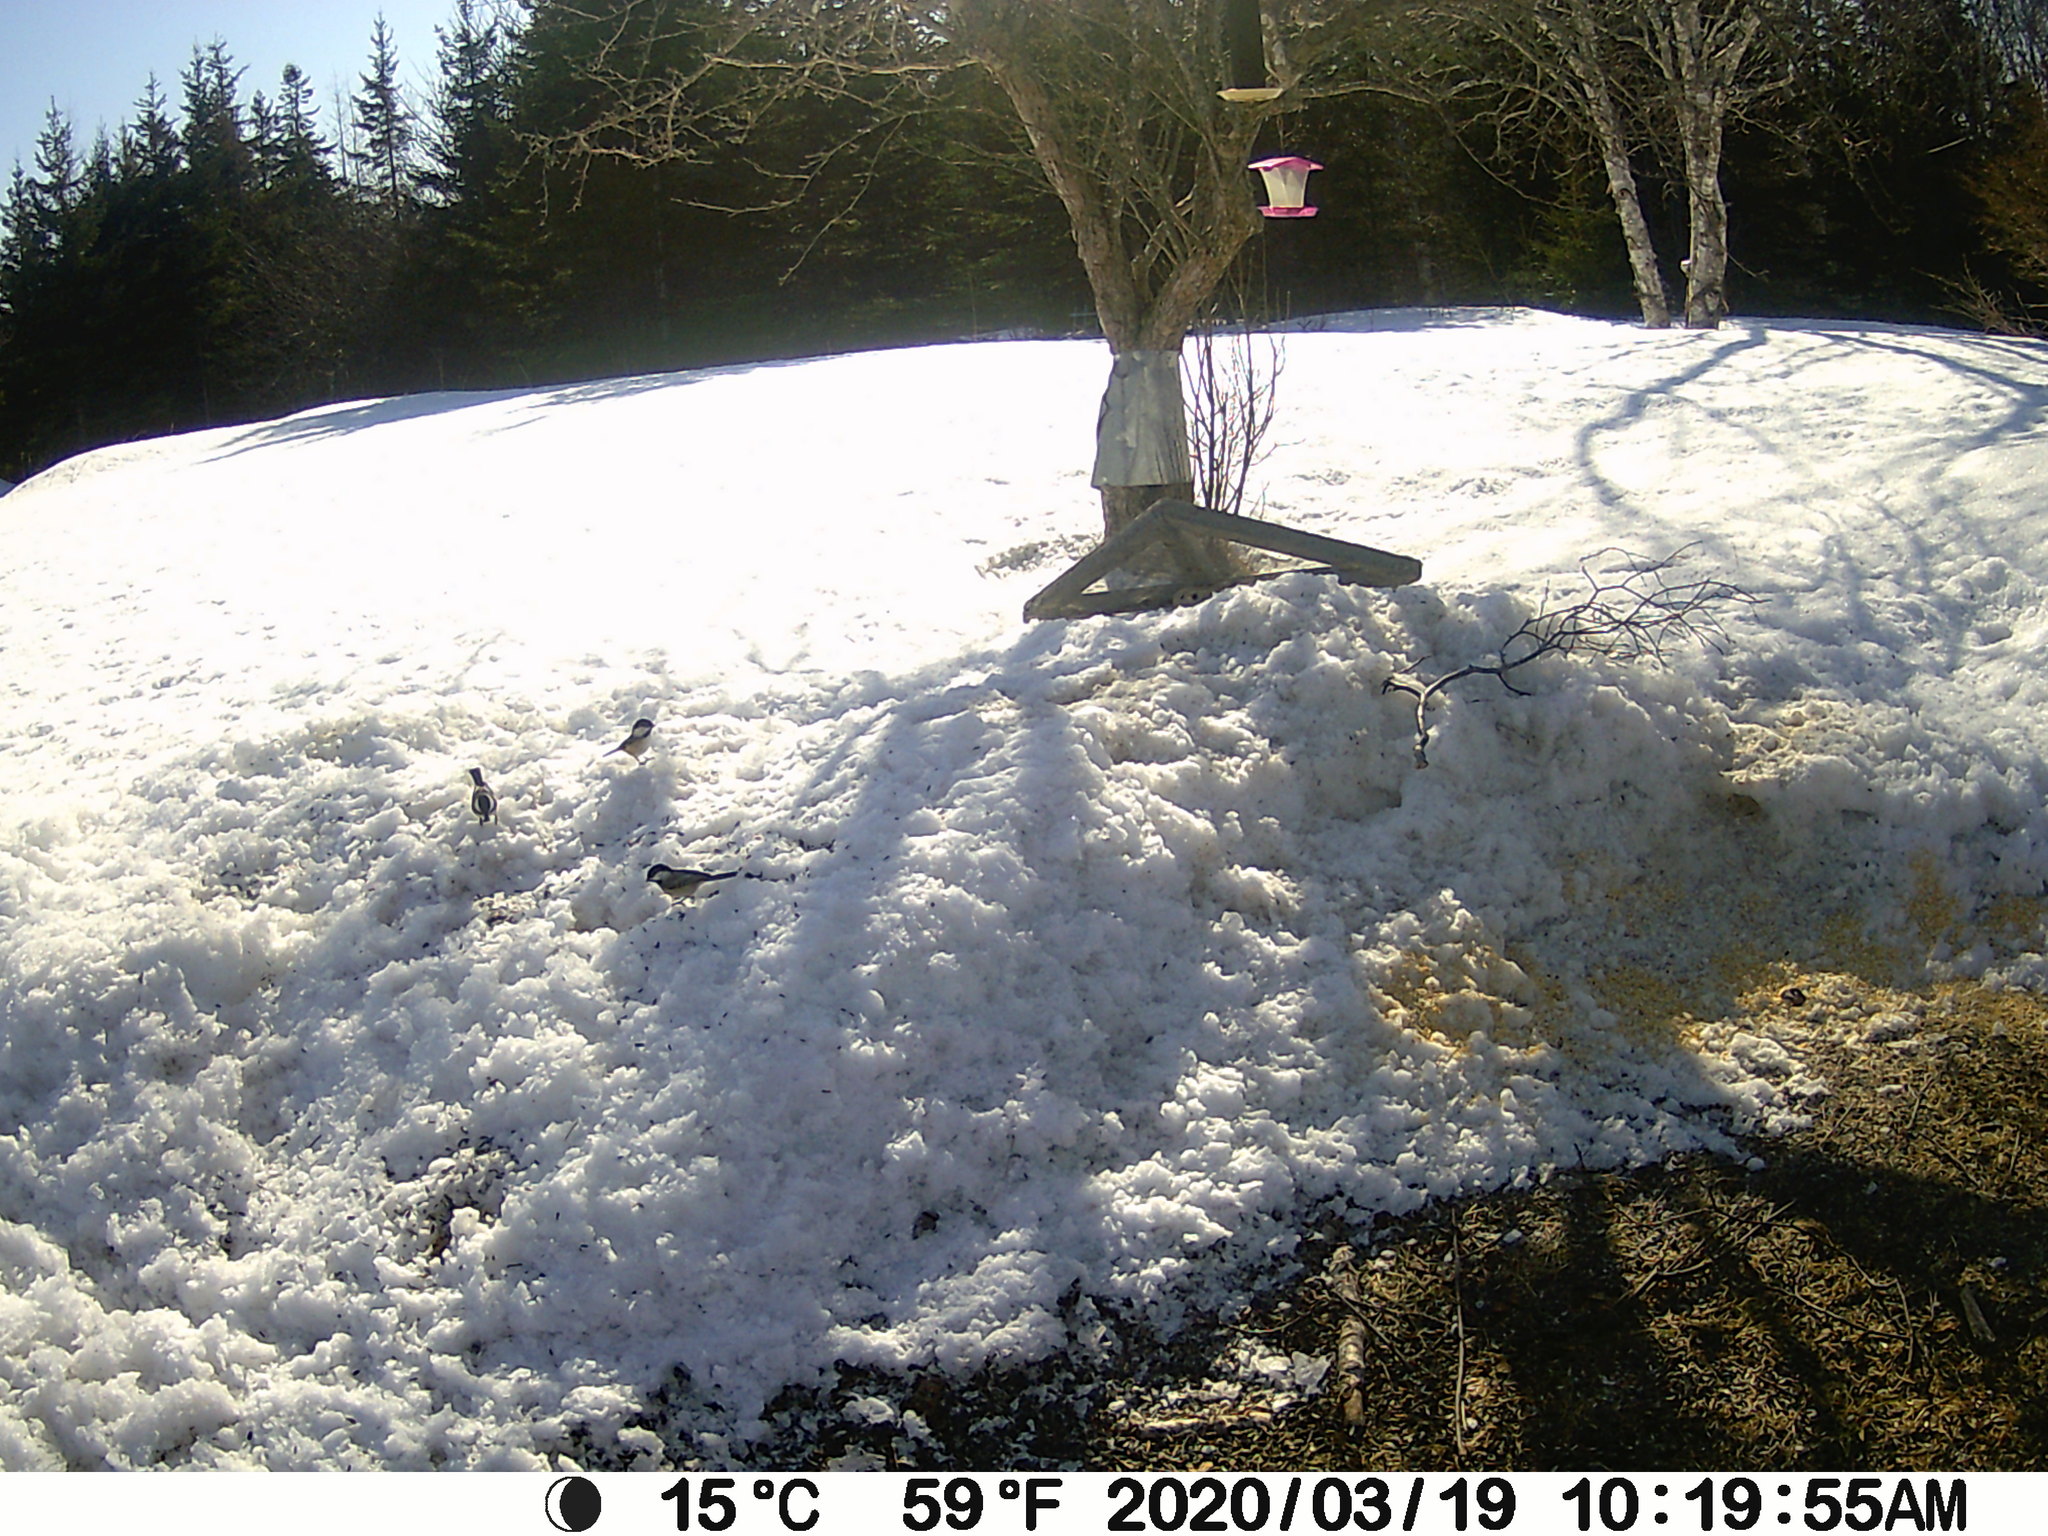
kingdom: Animalia
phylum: Chordata
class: Aves
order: Passeriformes
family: Paridae
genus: Poecile
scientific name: Poecile atricapillus
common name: Black-capped chickadee
